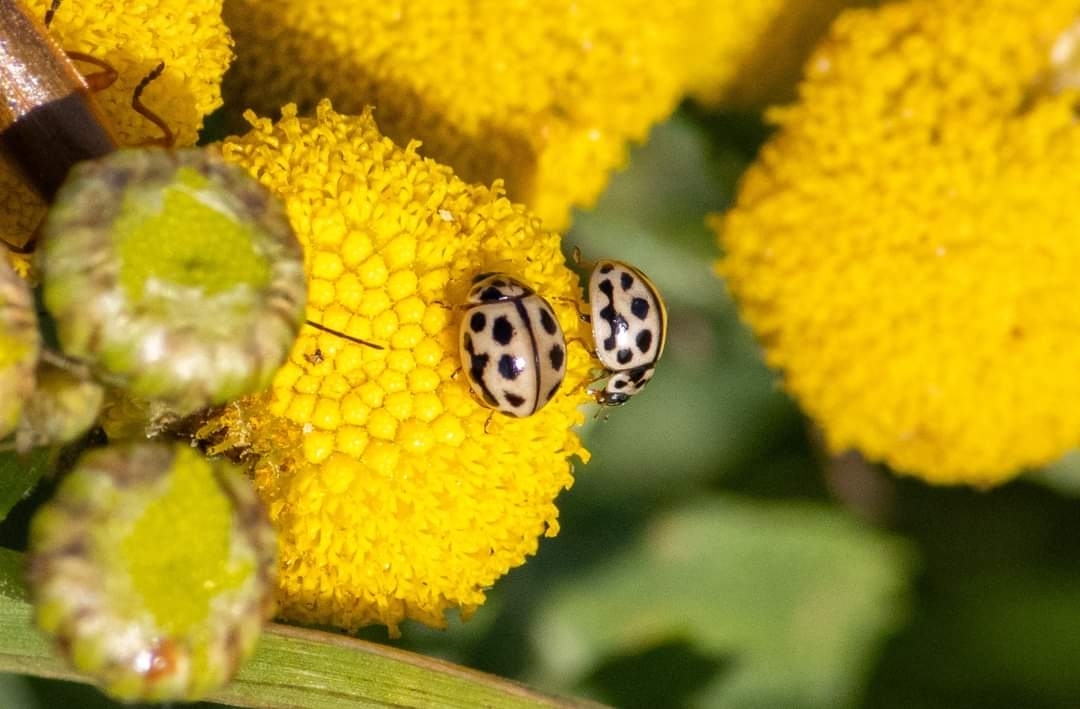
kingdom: Animalia
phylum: Arthropoda
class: Insecta
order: Coleoptera
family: Coccinellidae
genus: Tytthaspis
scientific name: Tytthaspis sedecimpunctata
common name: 16-spot ladybird
